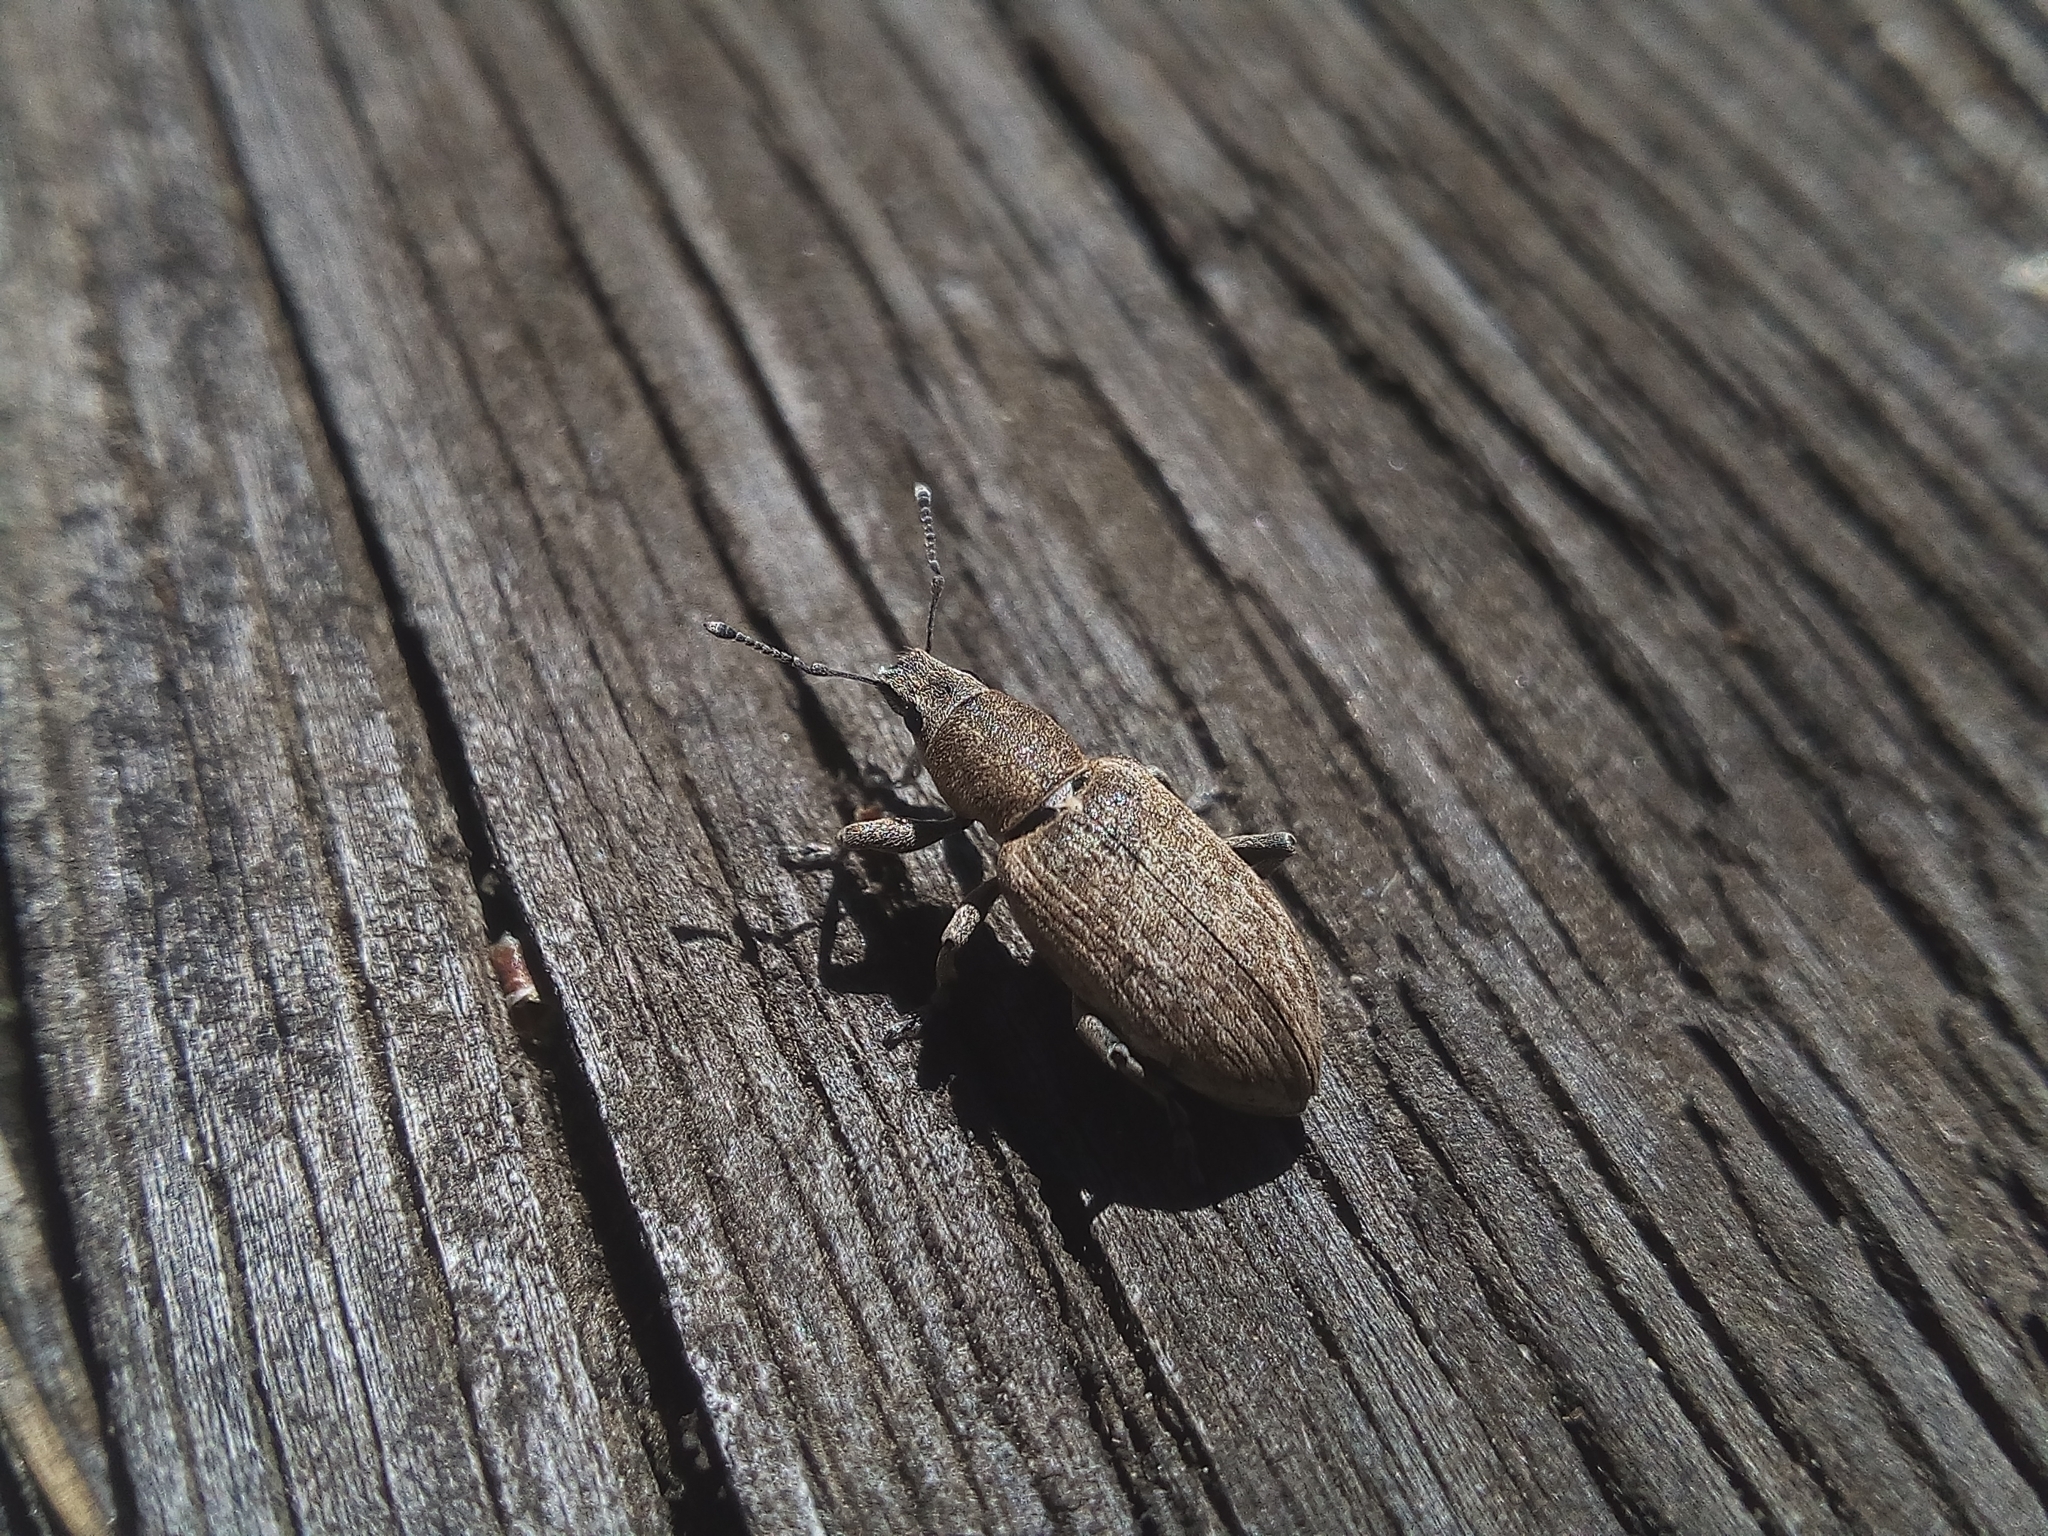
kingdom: Animalia
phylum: Arthropoda
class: Insecta
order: Coleoptera
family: Curculionidae
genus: Tanymecus
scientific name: Tanymecus palliatus
